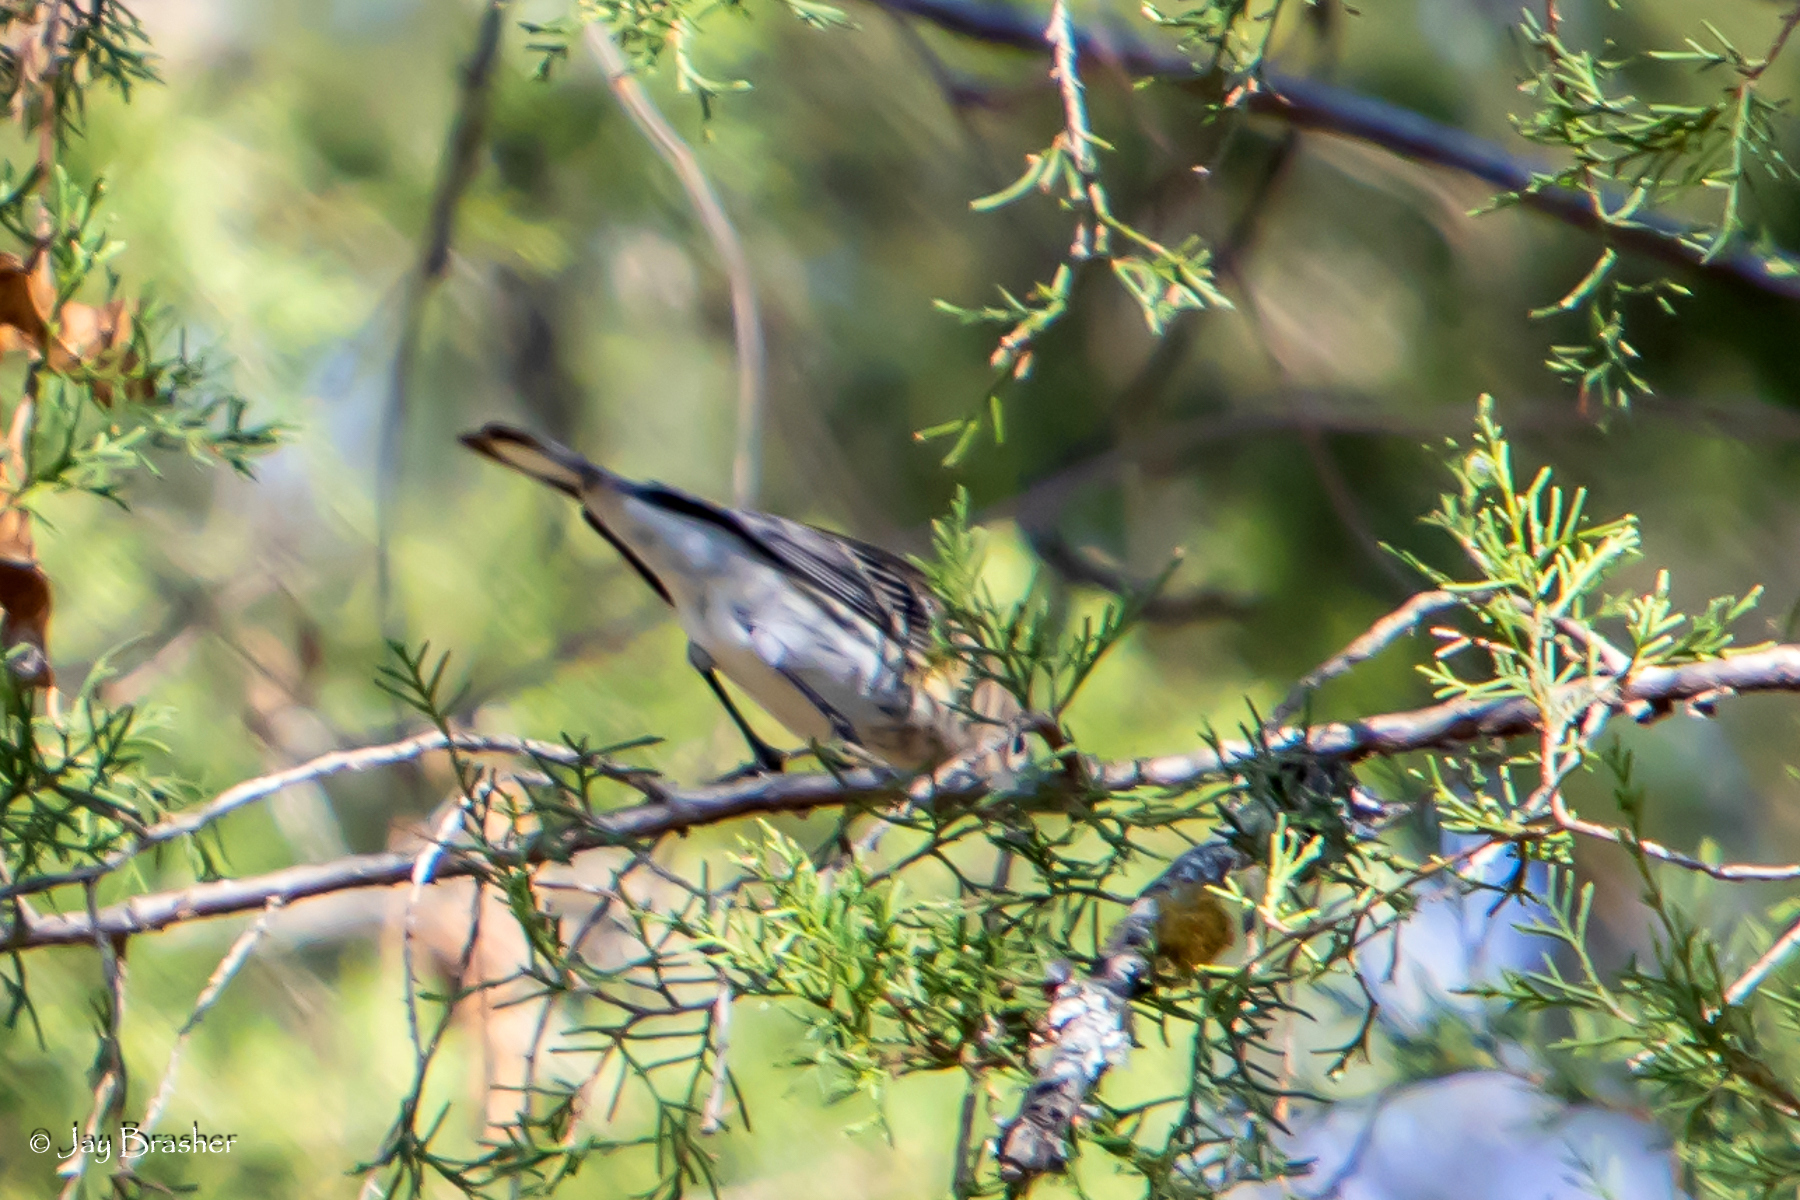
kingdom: Animalia
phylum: Chordata
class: Aves
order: Passeriformes
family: Parulidae
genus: Setophaga
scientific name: Setophaga coronata
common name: Myrtle warbler
